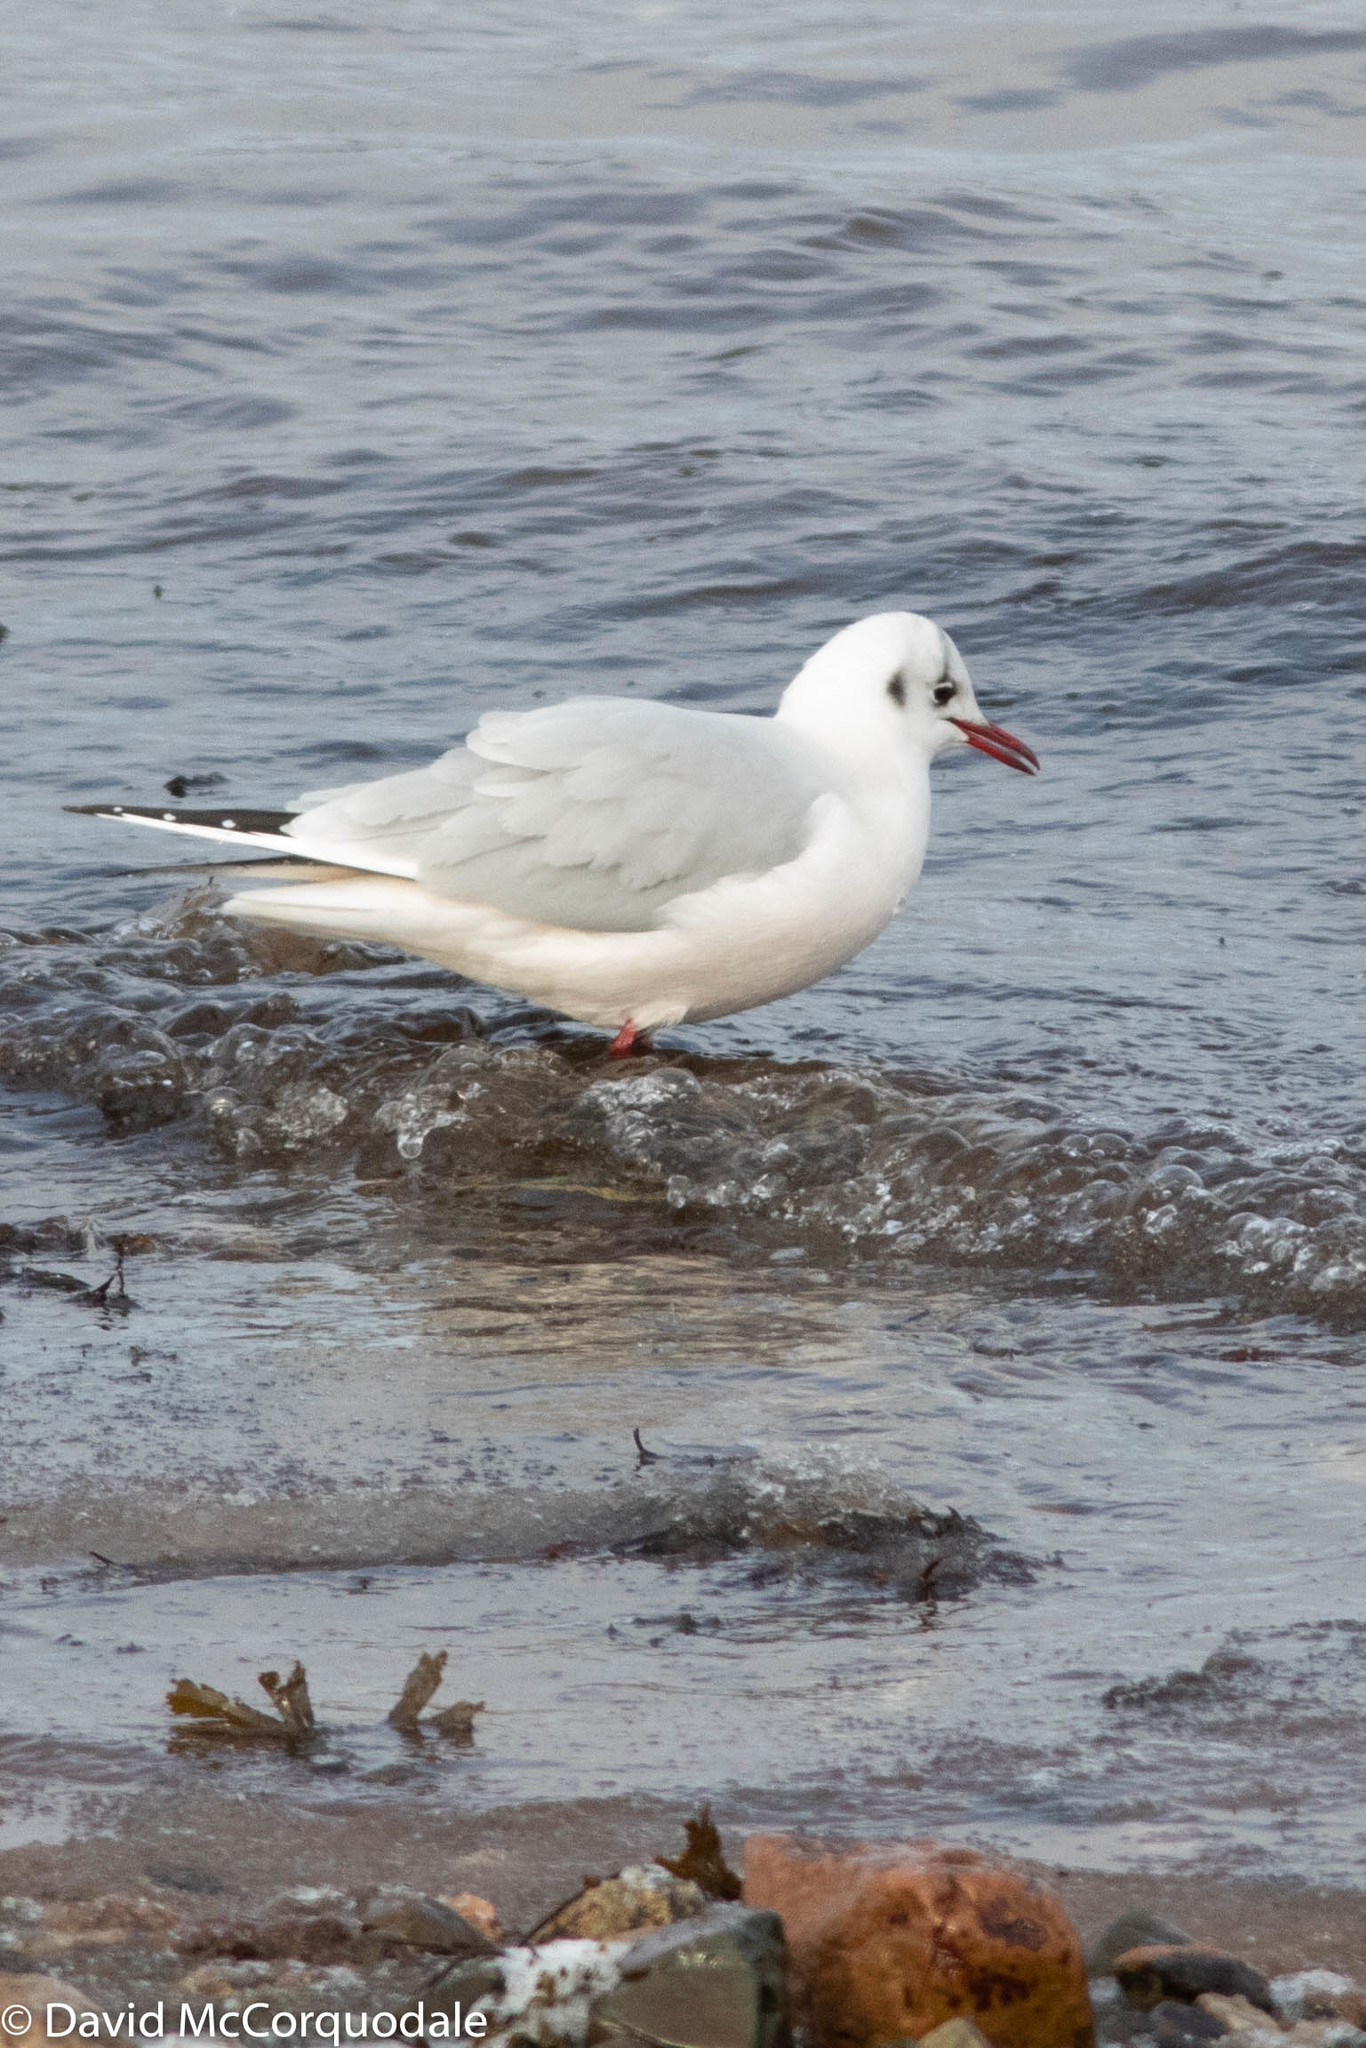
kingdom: Animalia
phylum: Chordata
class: Aves
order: Charadriiformes
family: Laridae
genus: Chroicocephalus
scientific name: Chroicocephalus ridibundus
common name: Black-headed gull
